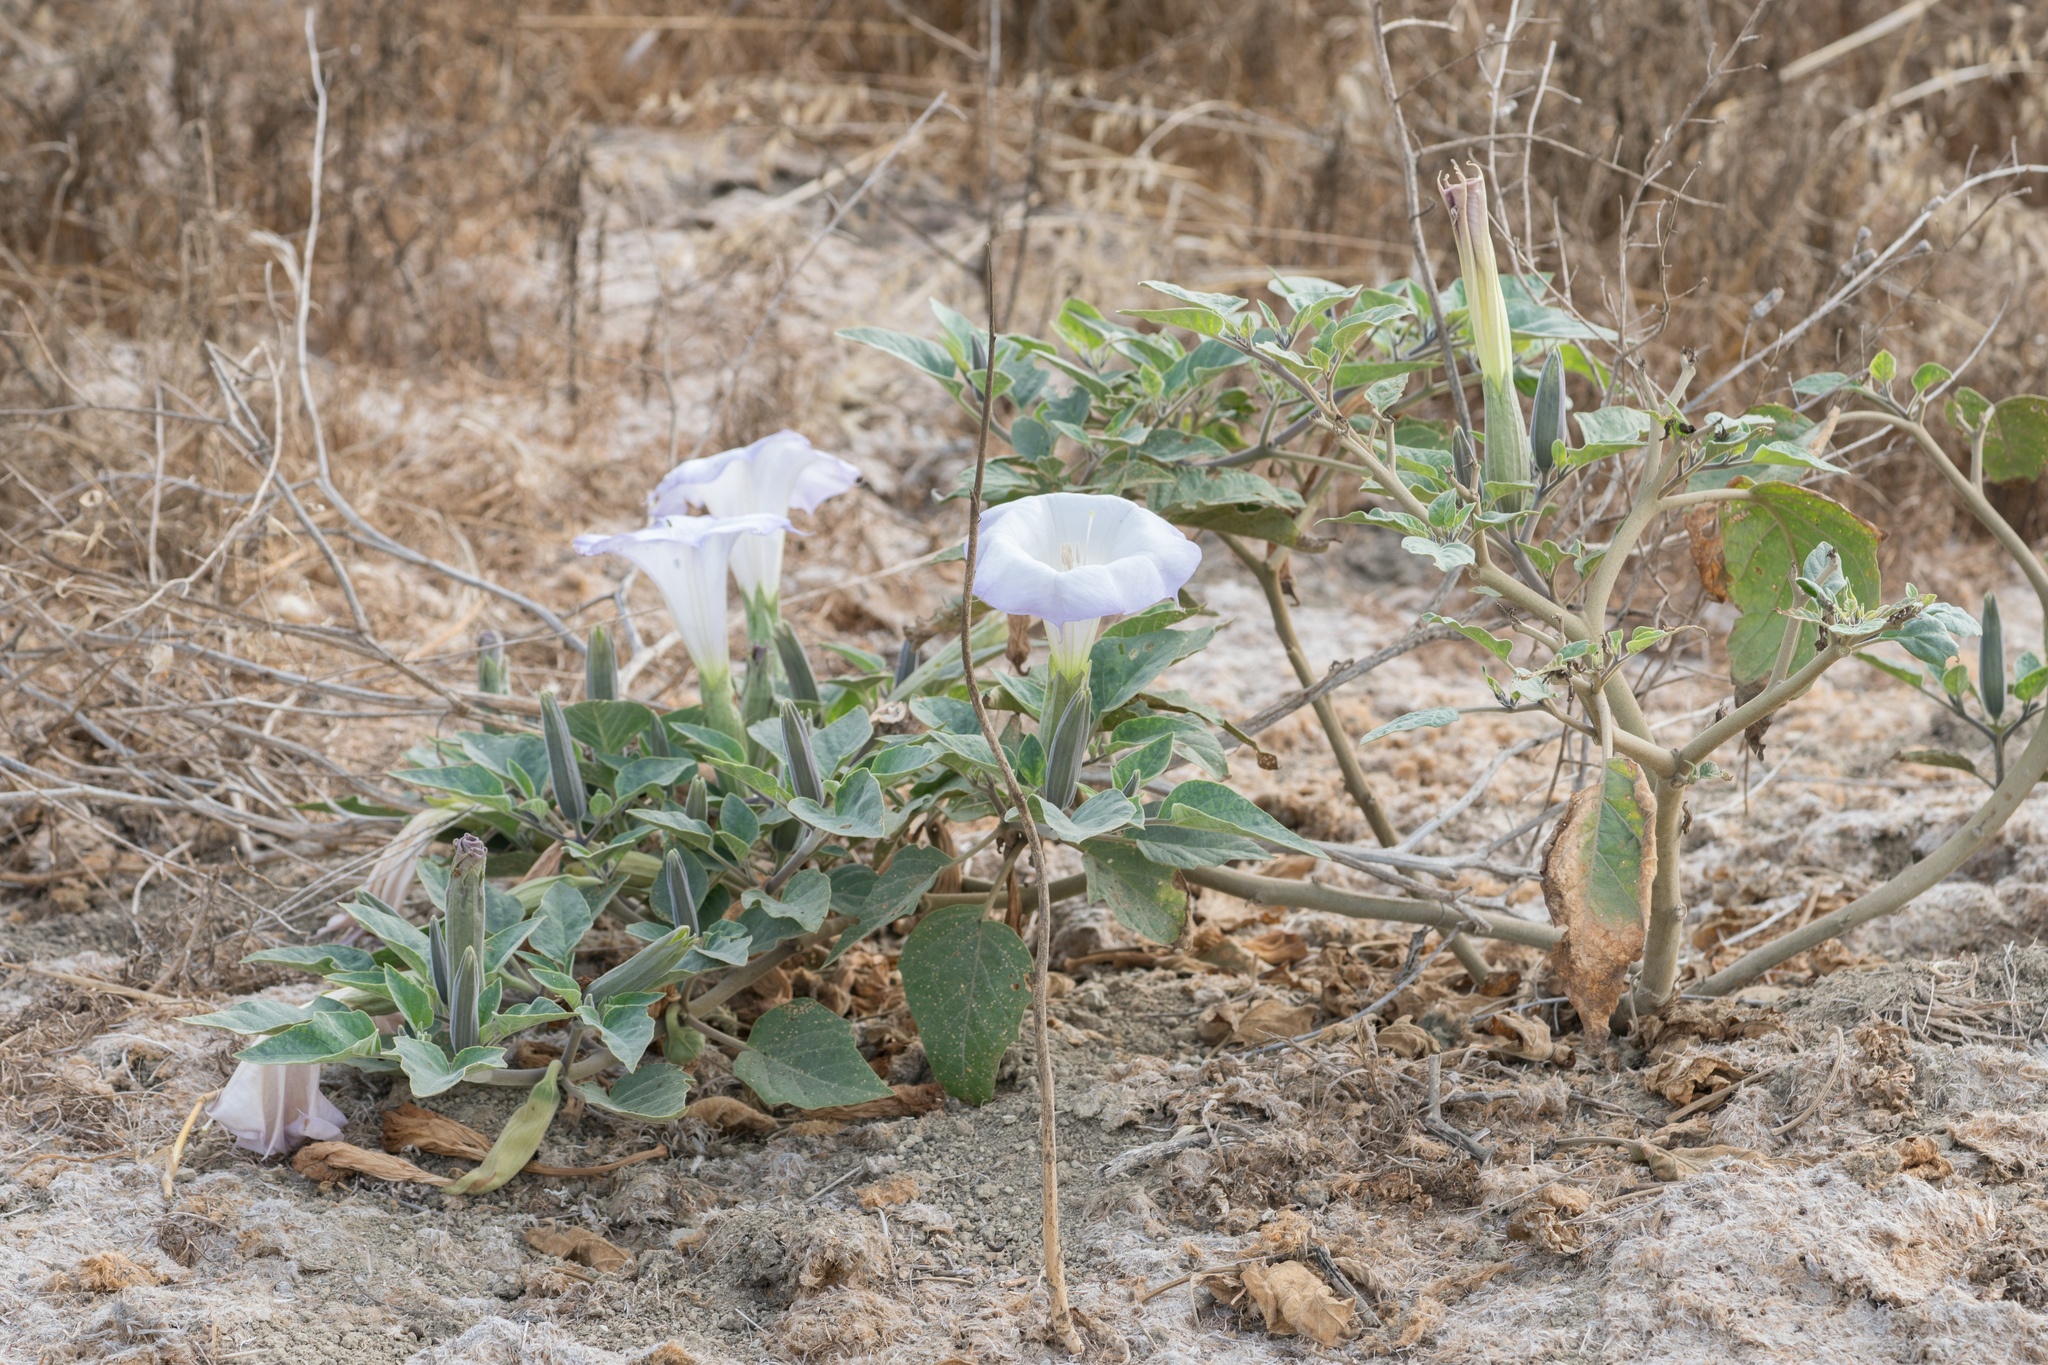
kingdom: Plantae
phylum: Tracheophyta
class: Magnoliopsida
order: Solanales
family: Solanaceae
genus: Datura
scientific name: Datura wrightii
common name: Sacred thorn-apple
